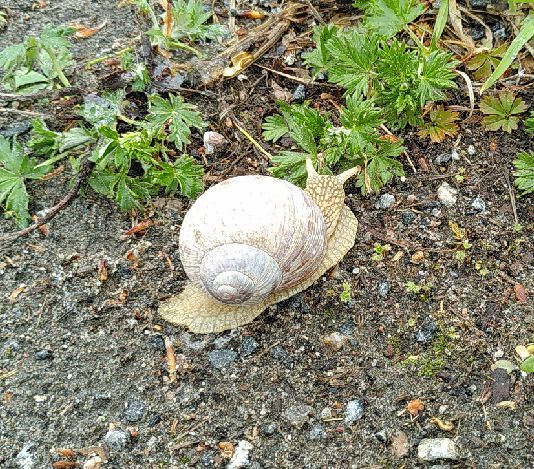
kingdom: Animalia
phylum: Mollusca
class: Gastropoda
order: Stylommatophora
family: Helicidae
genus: Helix
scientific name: Helix pomatia
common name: Roman snail
